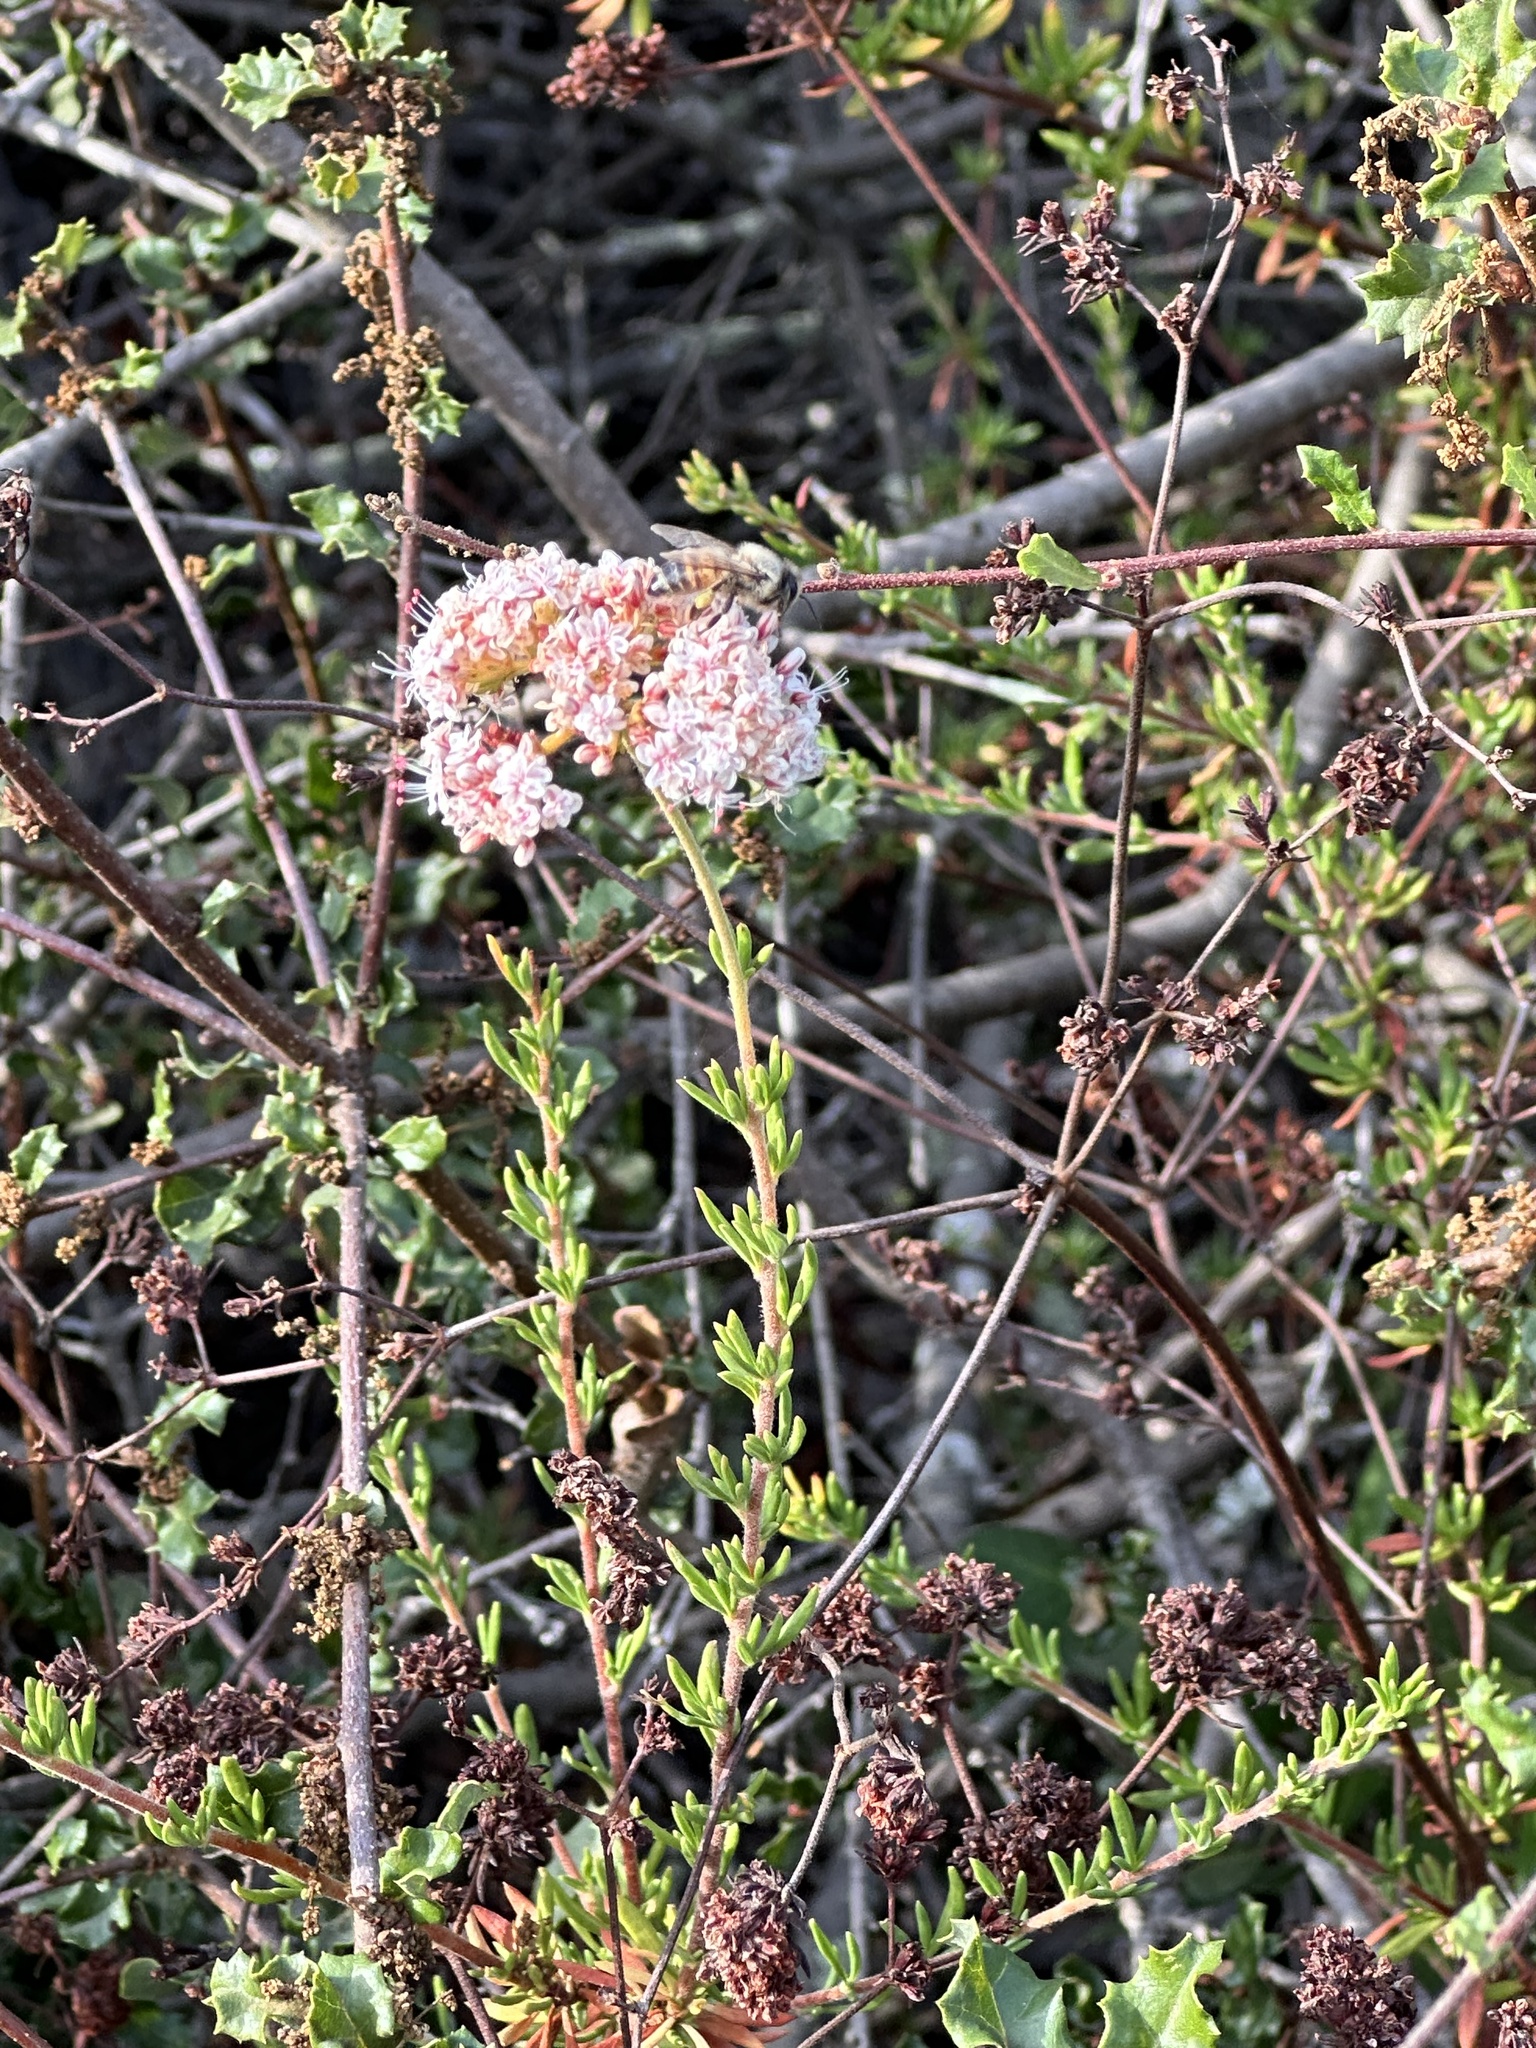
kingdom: Plantae
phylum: Tracheophyta
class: Magnoliopsida
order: Caryophyllales
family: Polygonaceae
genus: Eriogonum
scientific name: Eriogonum fasciculatum
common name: California wild buckwheat
